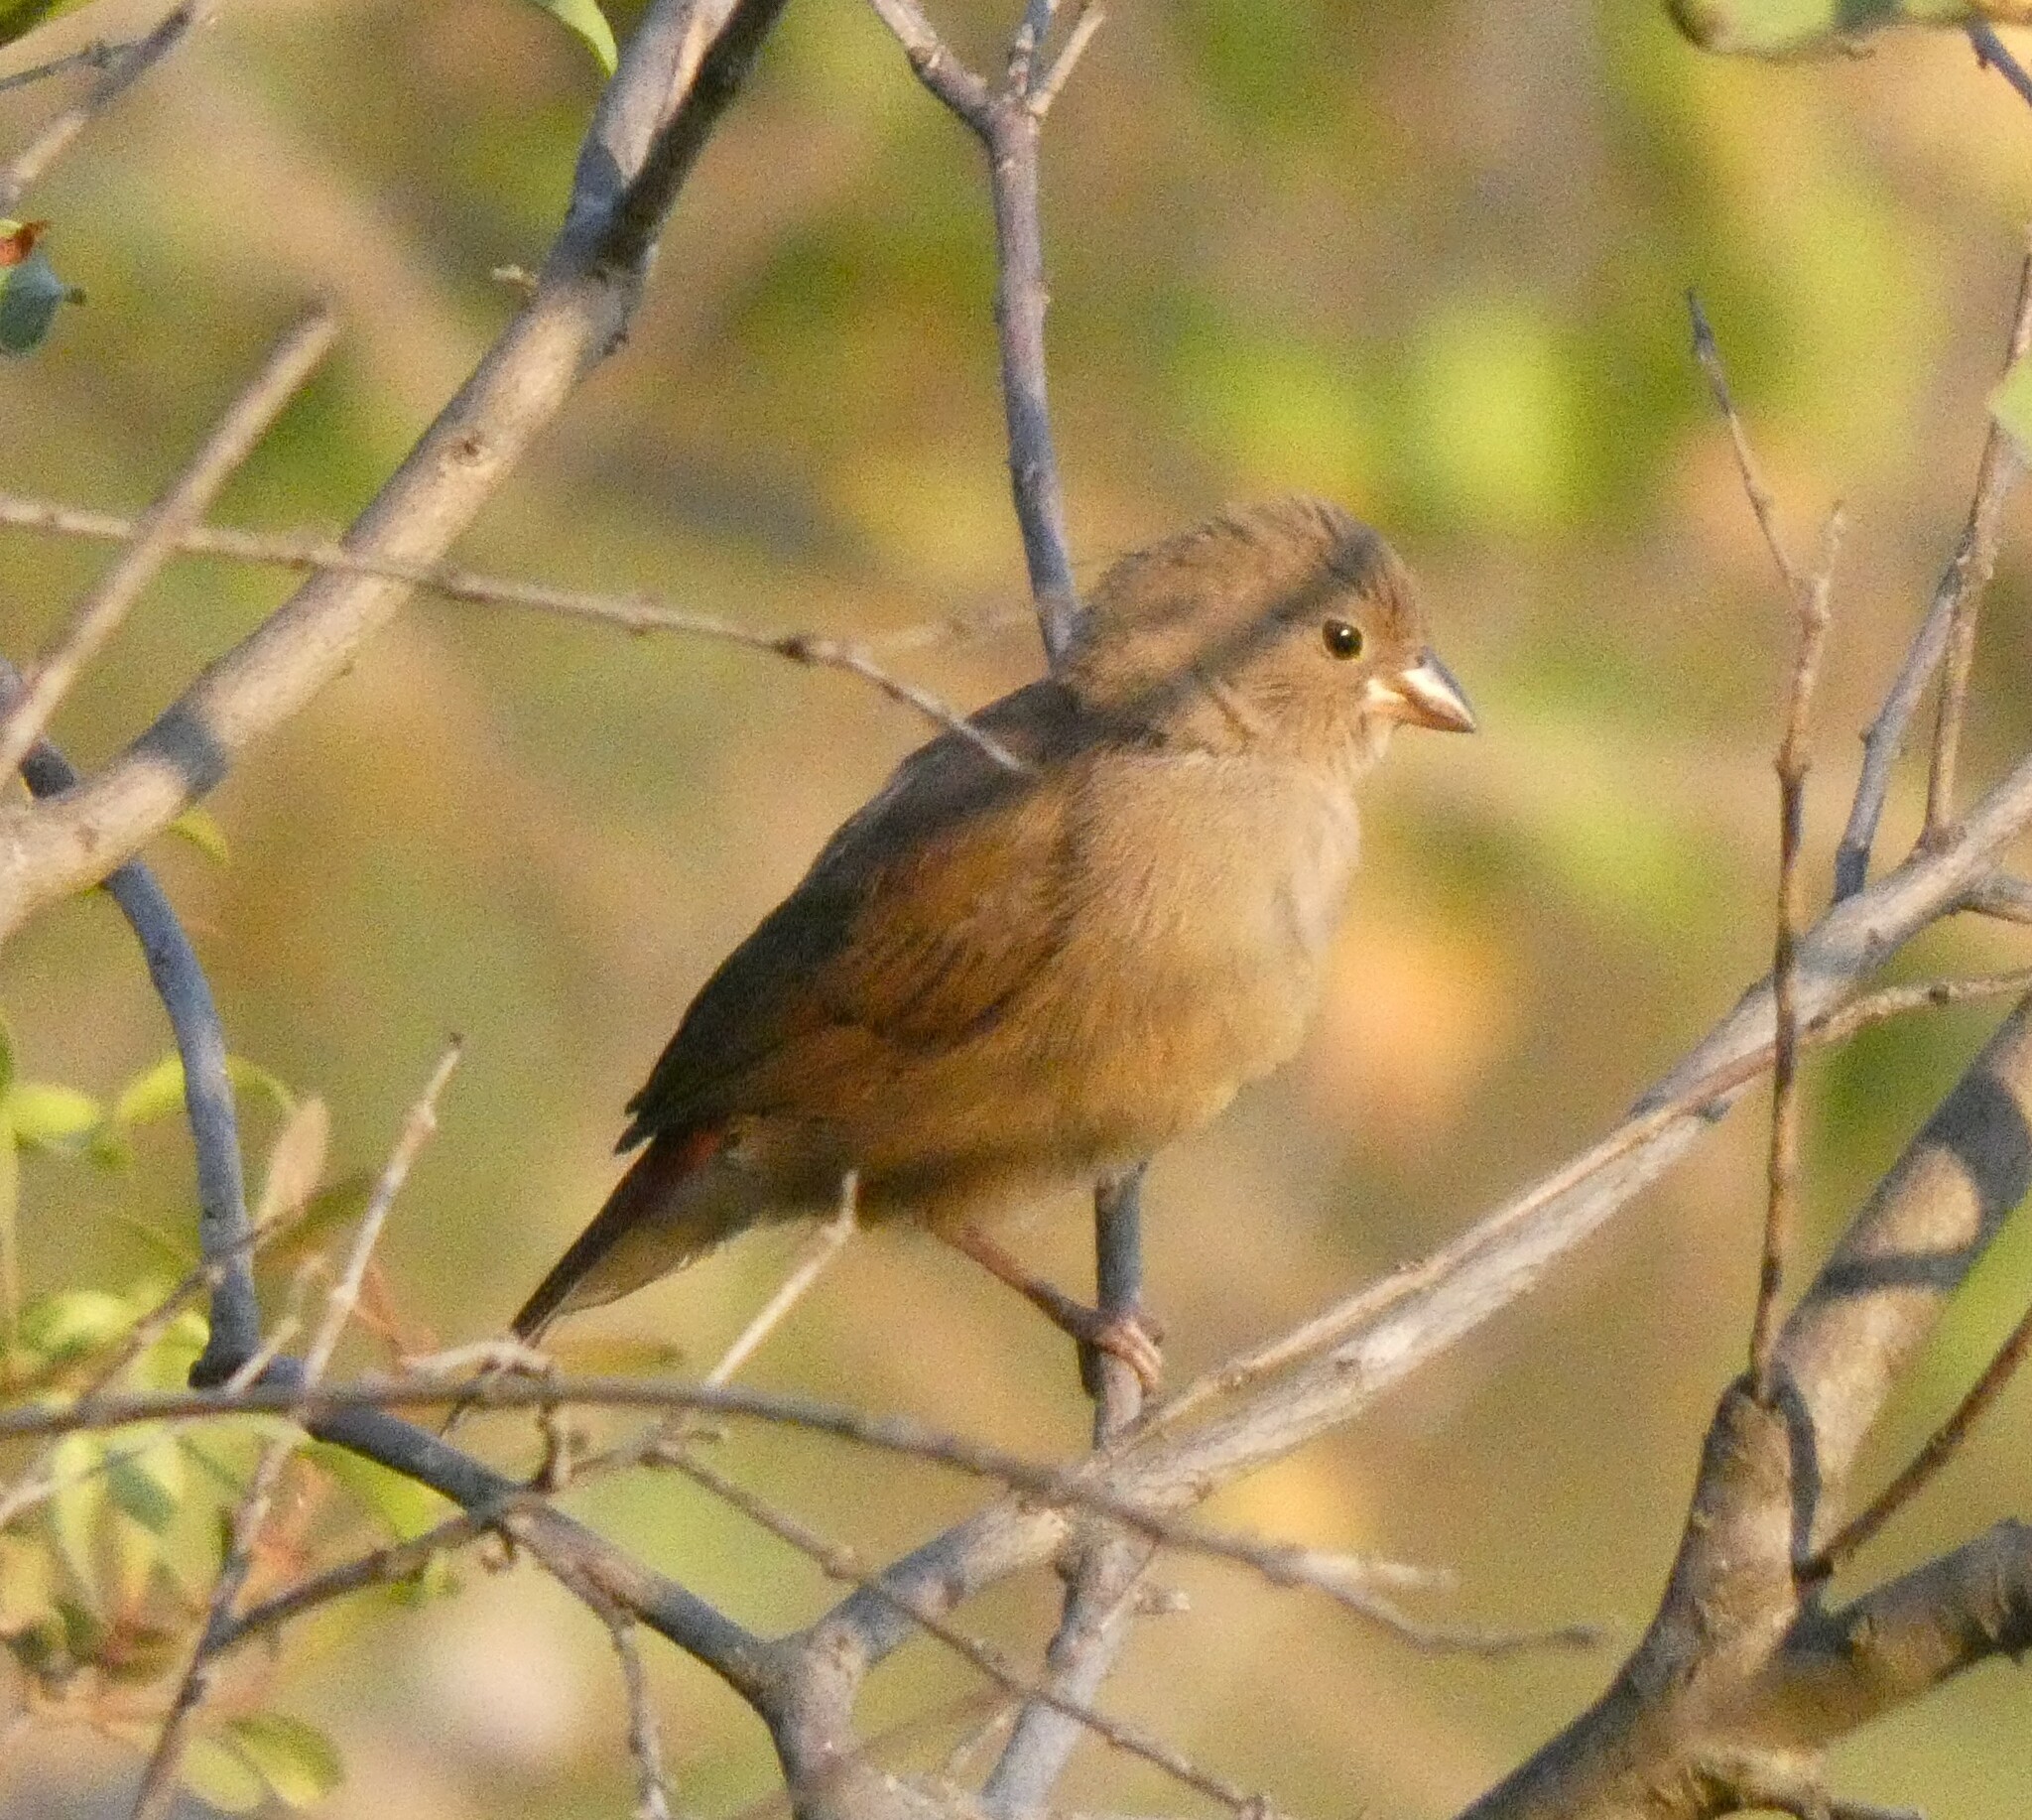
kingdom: Animalia
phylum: Chordata
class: Aves
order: Passeriformes
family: Estrildidae
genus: Lagonosticta
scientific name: Lagonosticta senegala
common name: Red-billed firefinch
